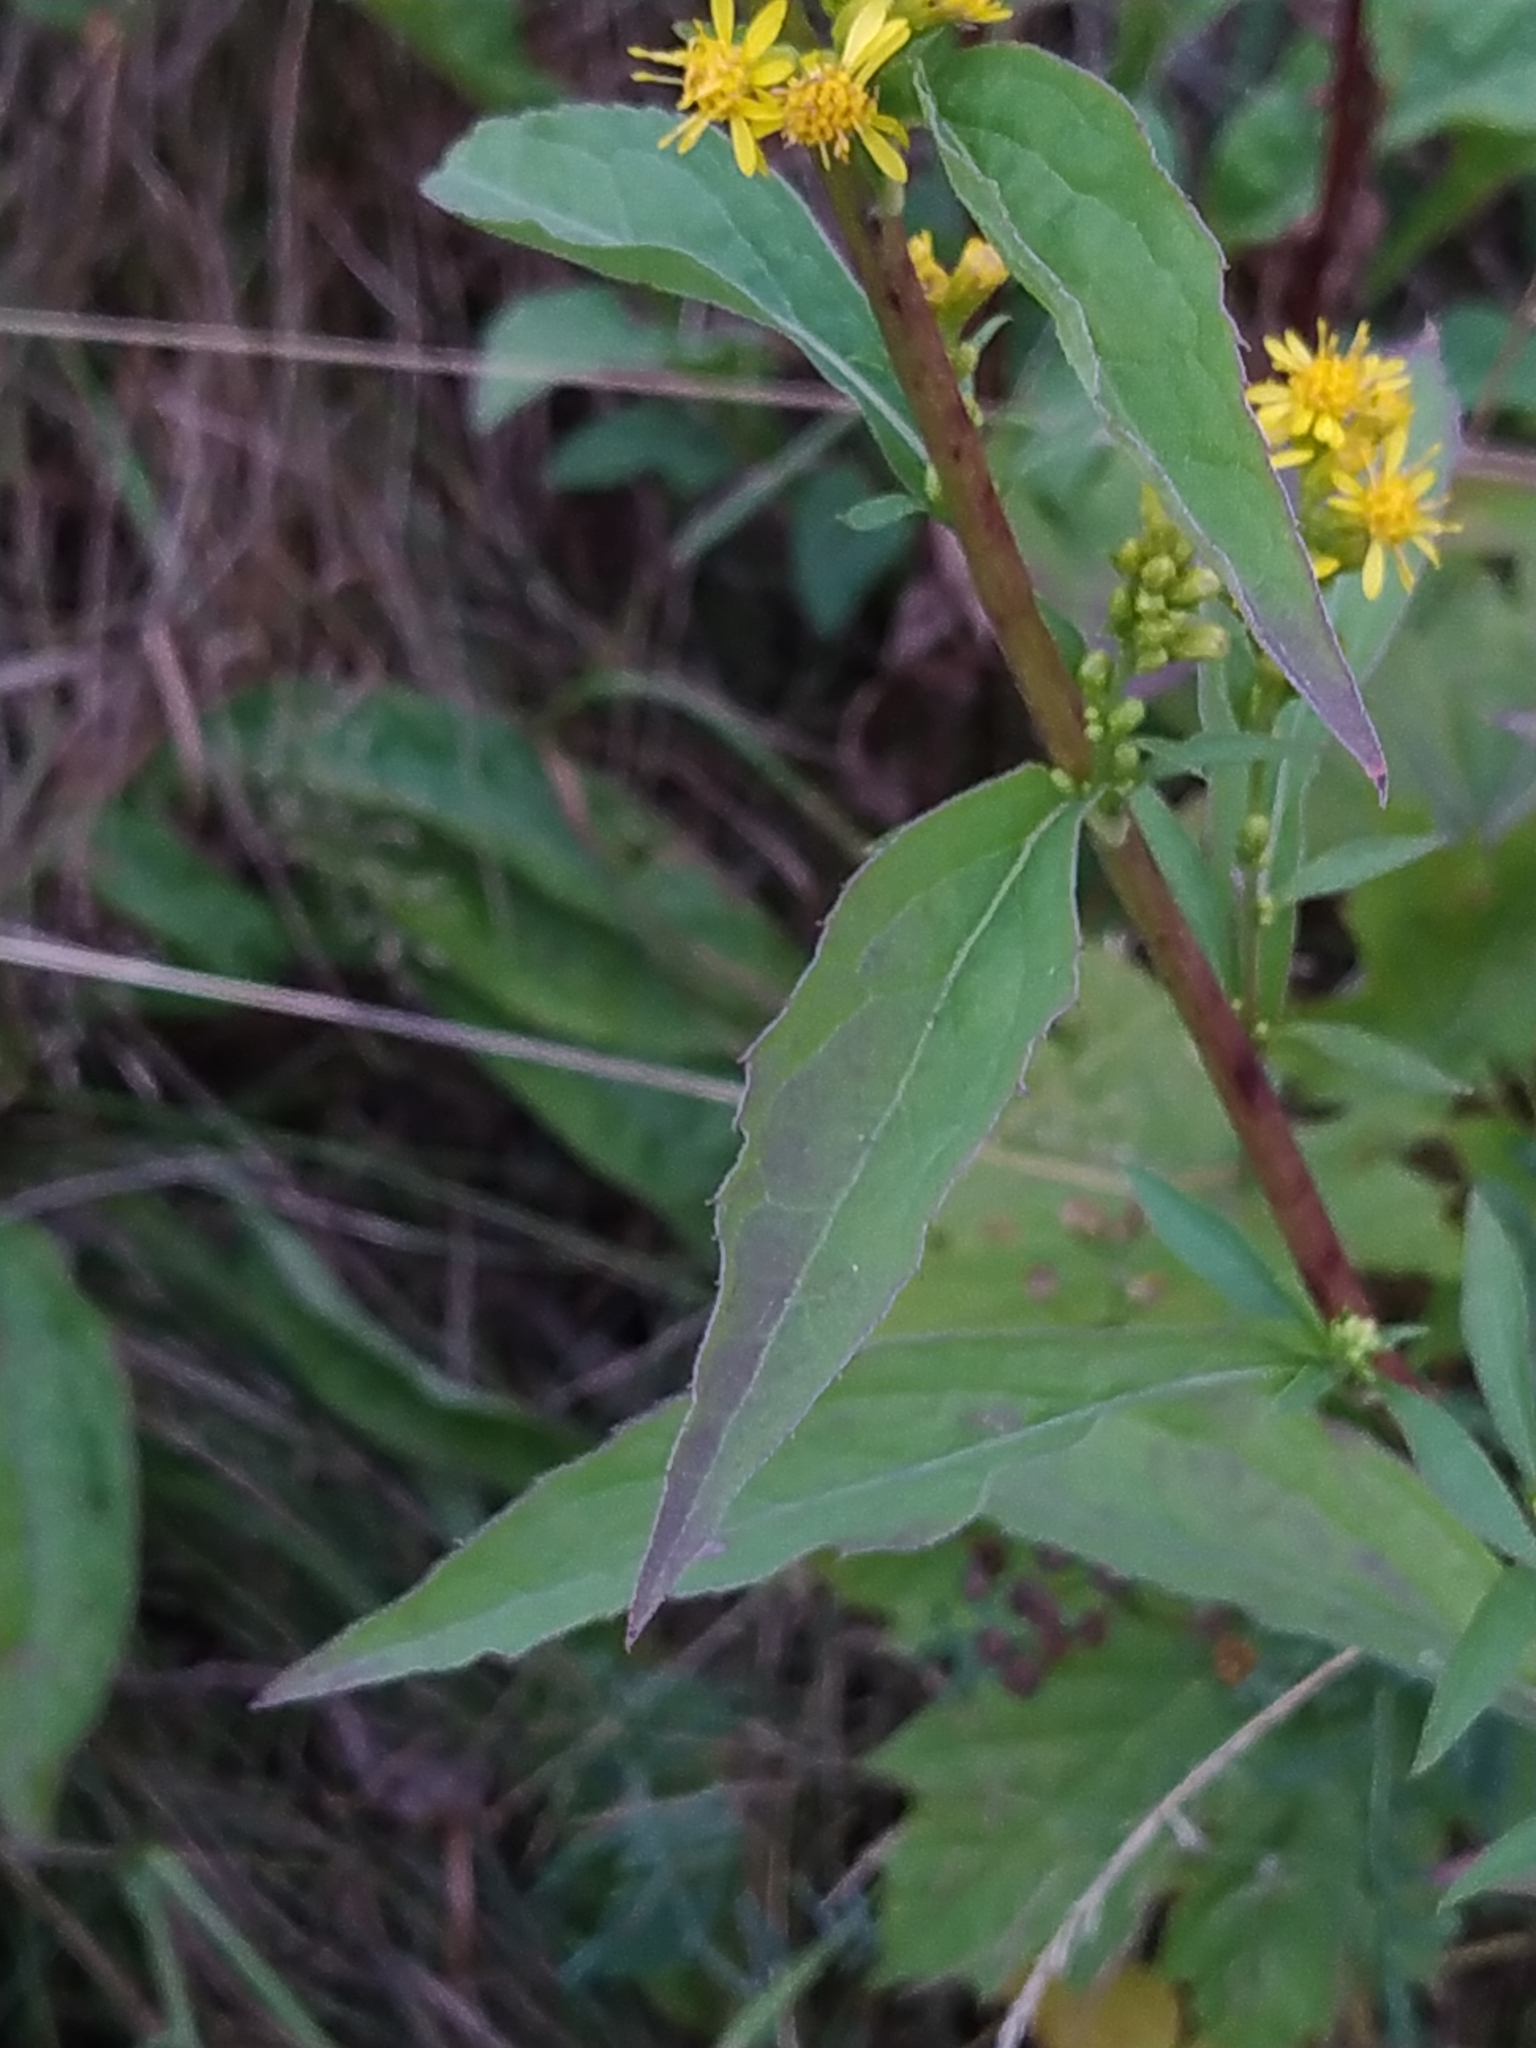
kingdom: Plantae
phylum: Tracheophyta
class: Magnoliopsida
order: Asterales
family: Asteraceae
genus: Solidago
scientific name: Solidago virgaurea
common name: Goldenrod
